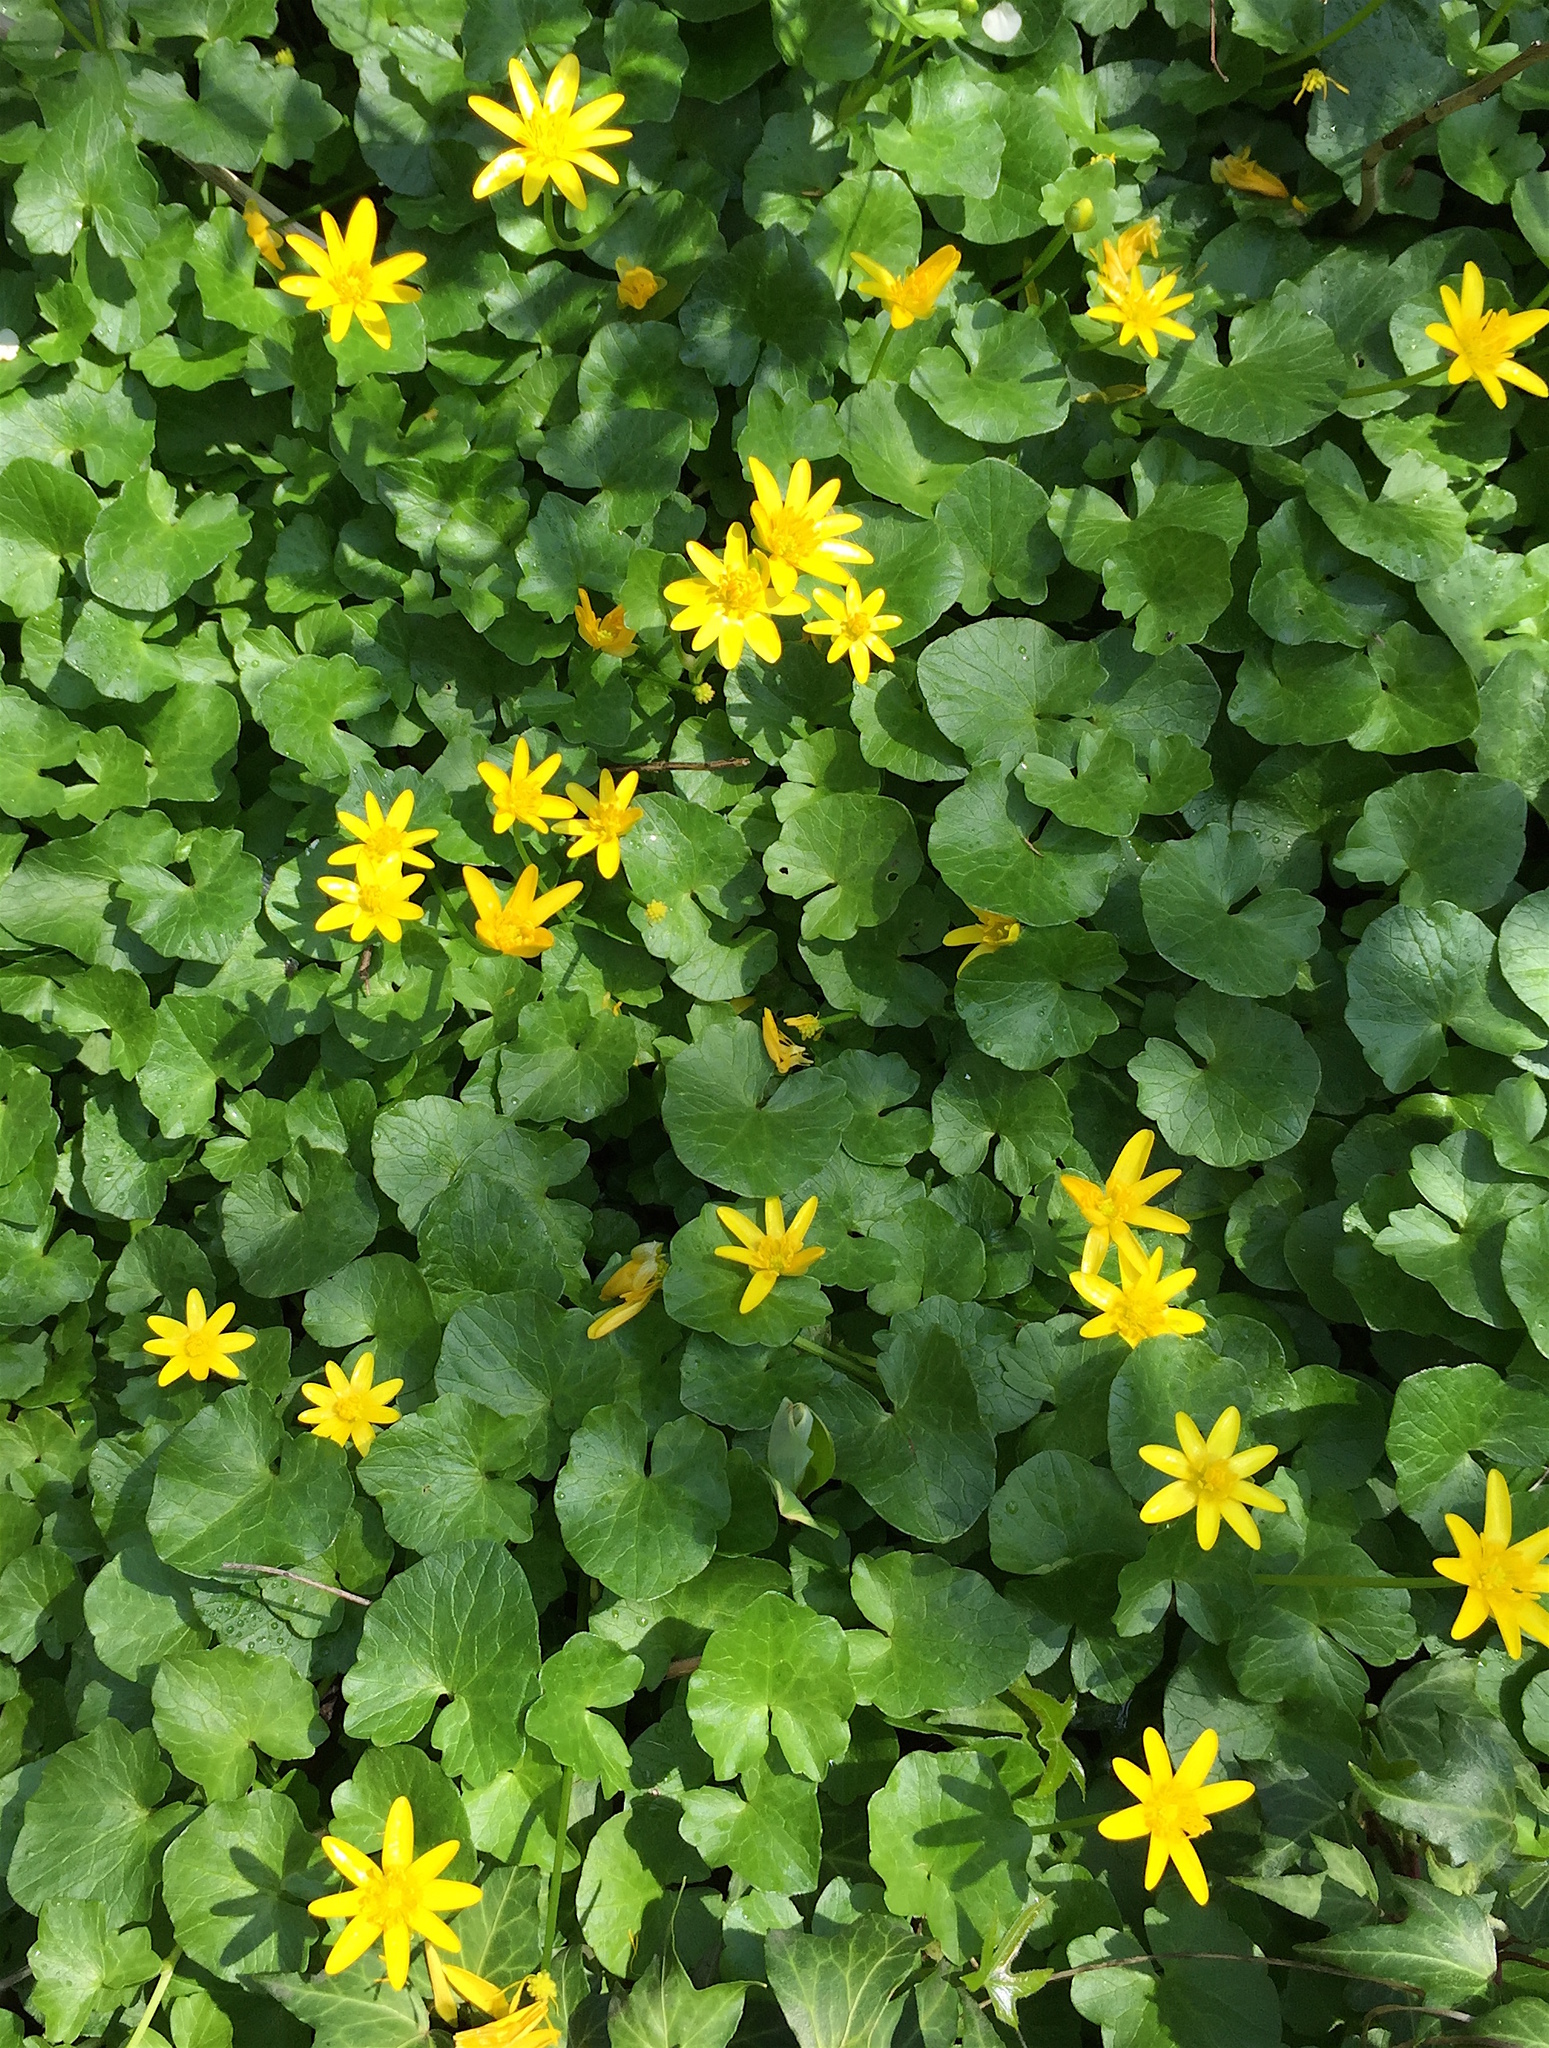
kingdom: Plantae
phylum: Tracheophyta
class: Magnoliopsida
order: Ranunculales
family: Ranunculaceae
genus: Ficaria
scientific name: Ficaria verna
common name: Lesser celandine
